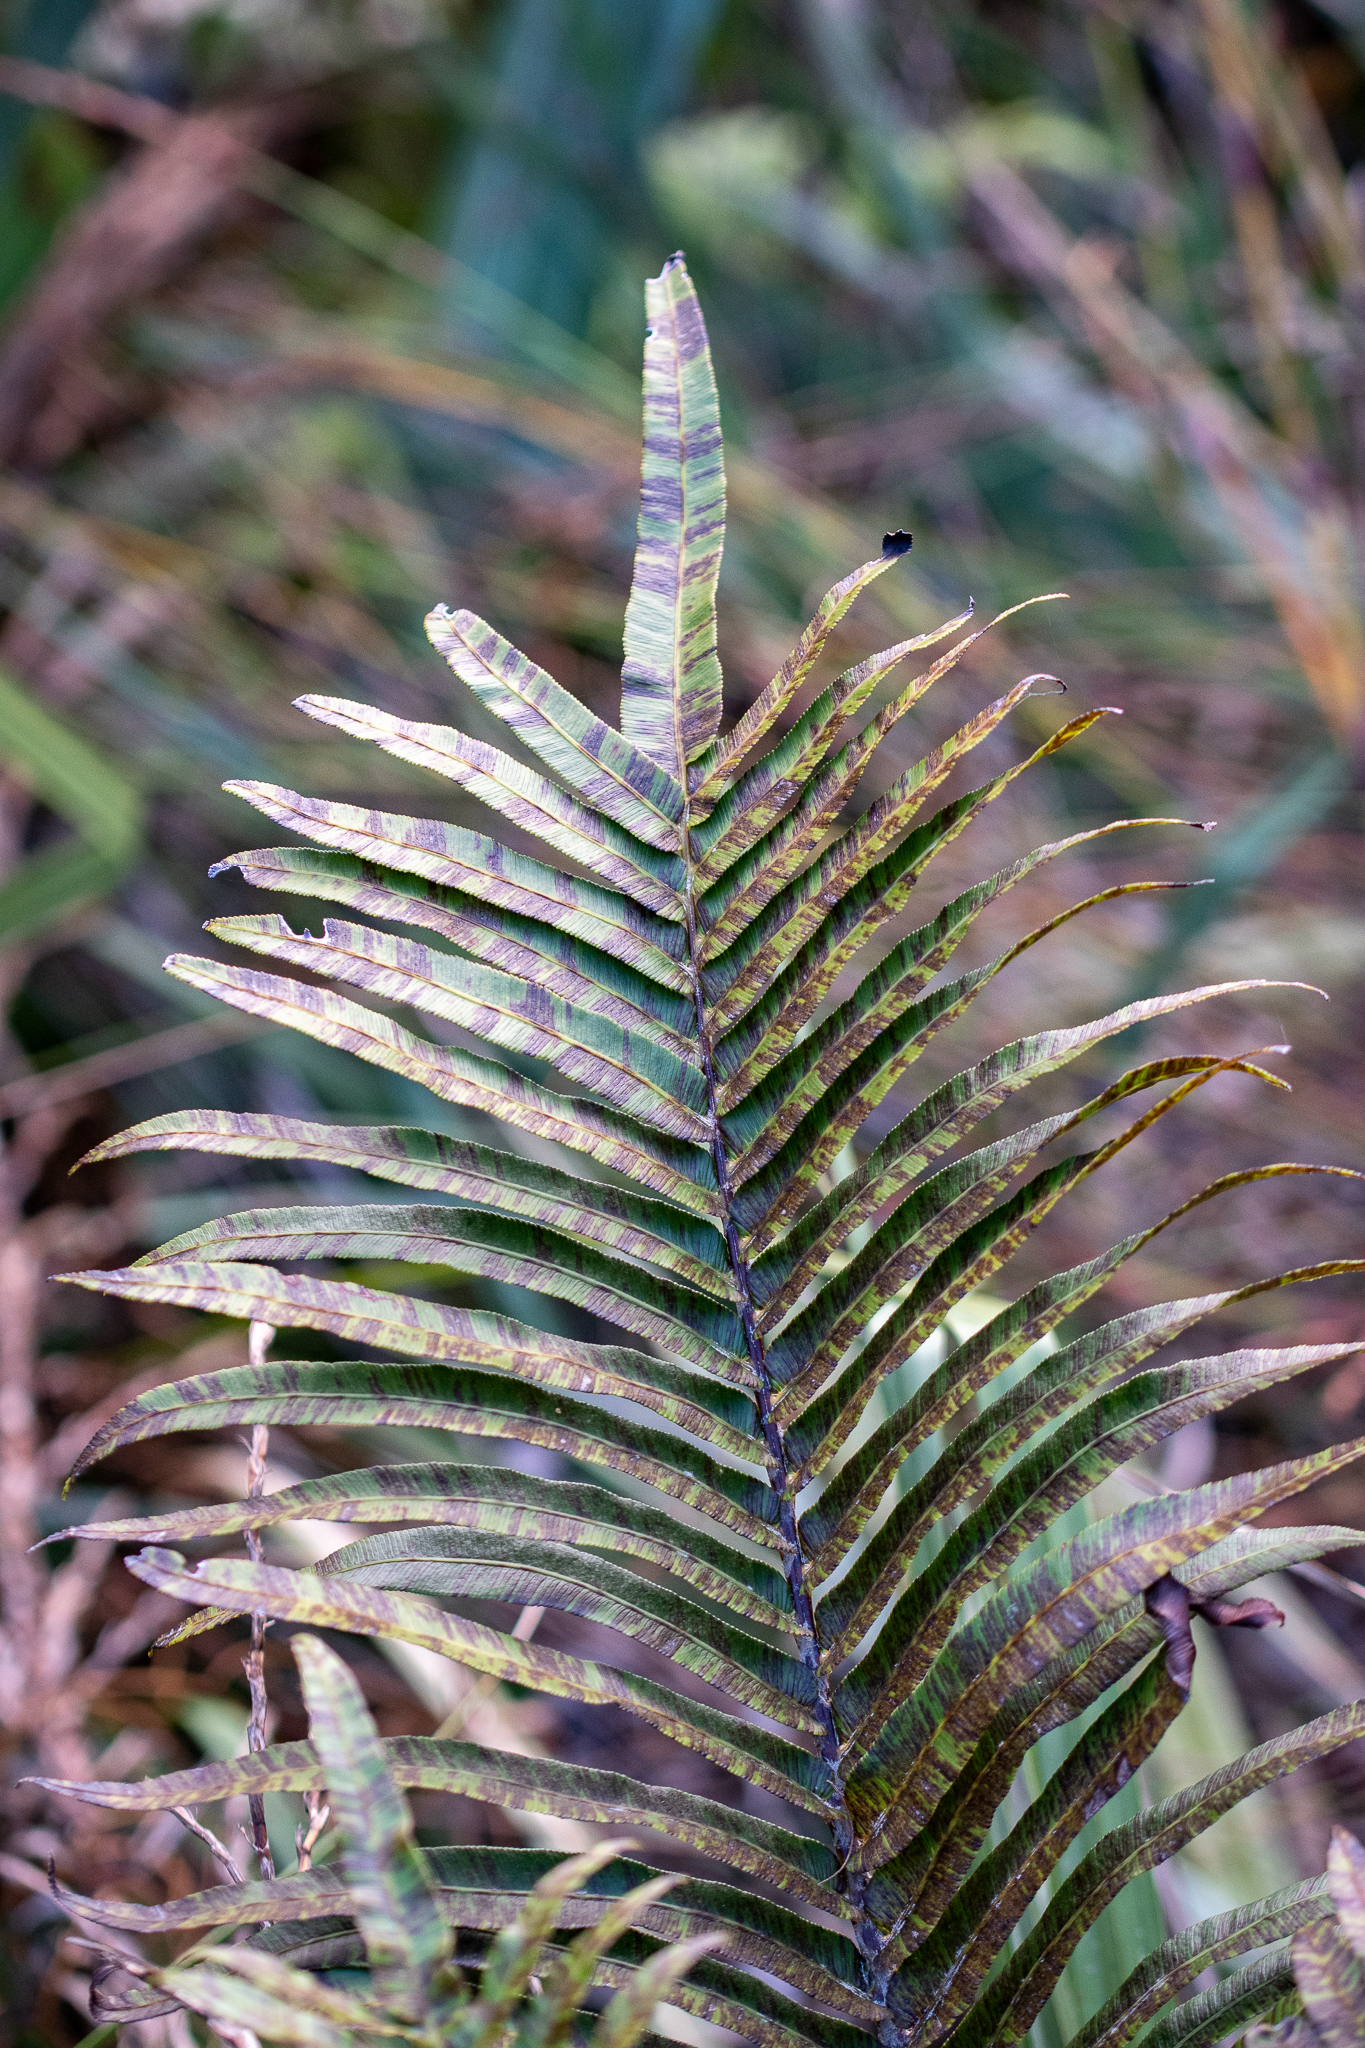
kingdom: Plantae
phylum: Tracheophyta
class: Polypodiopsida
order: Polypodiales
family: Blechnaceae
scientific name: Blechnaceae
